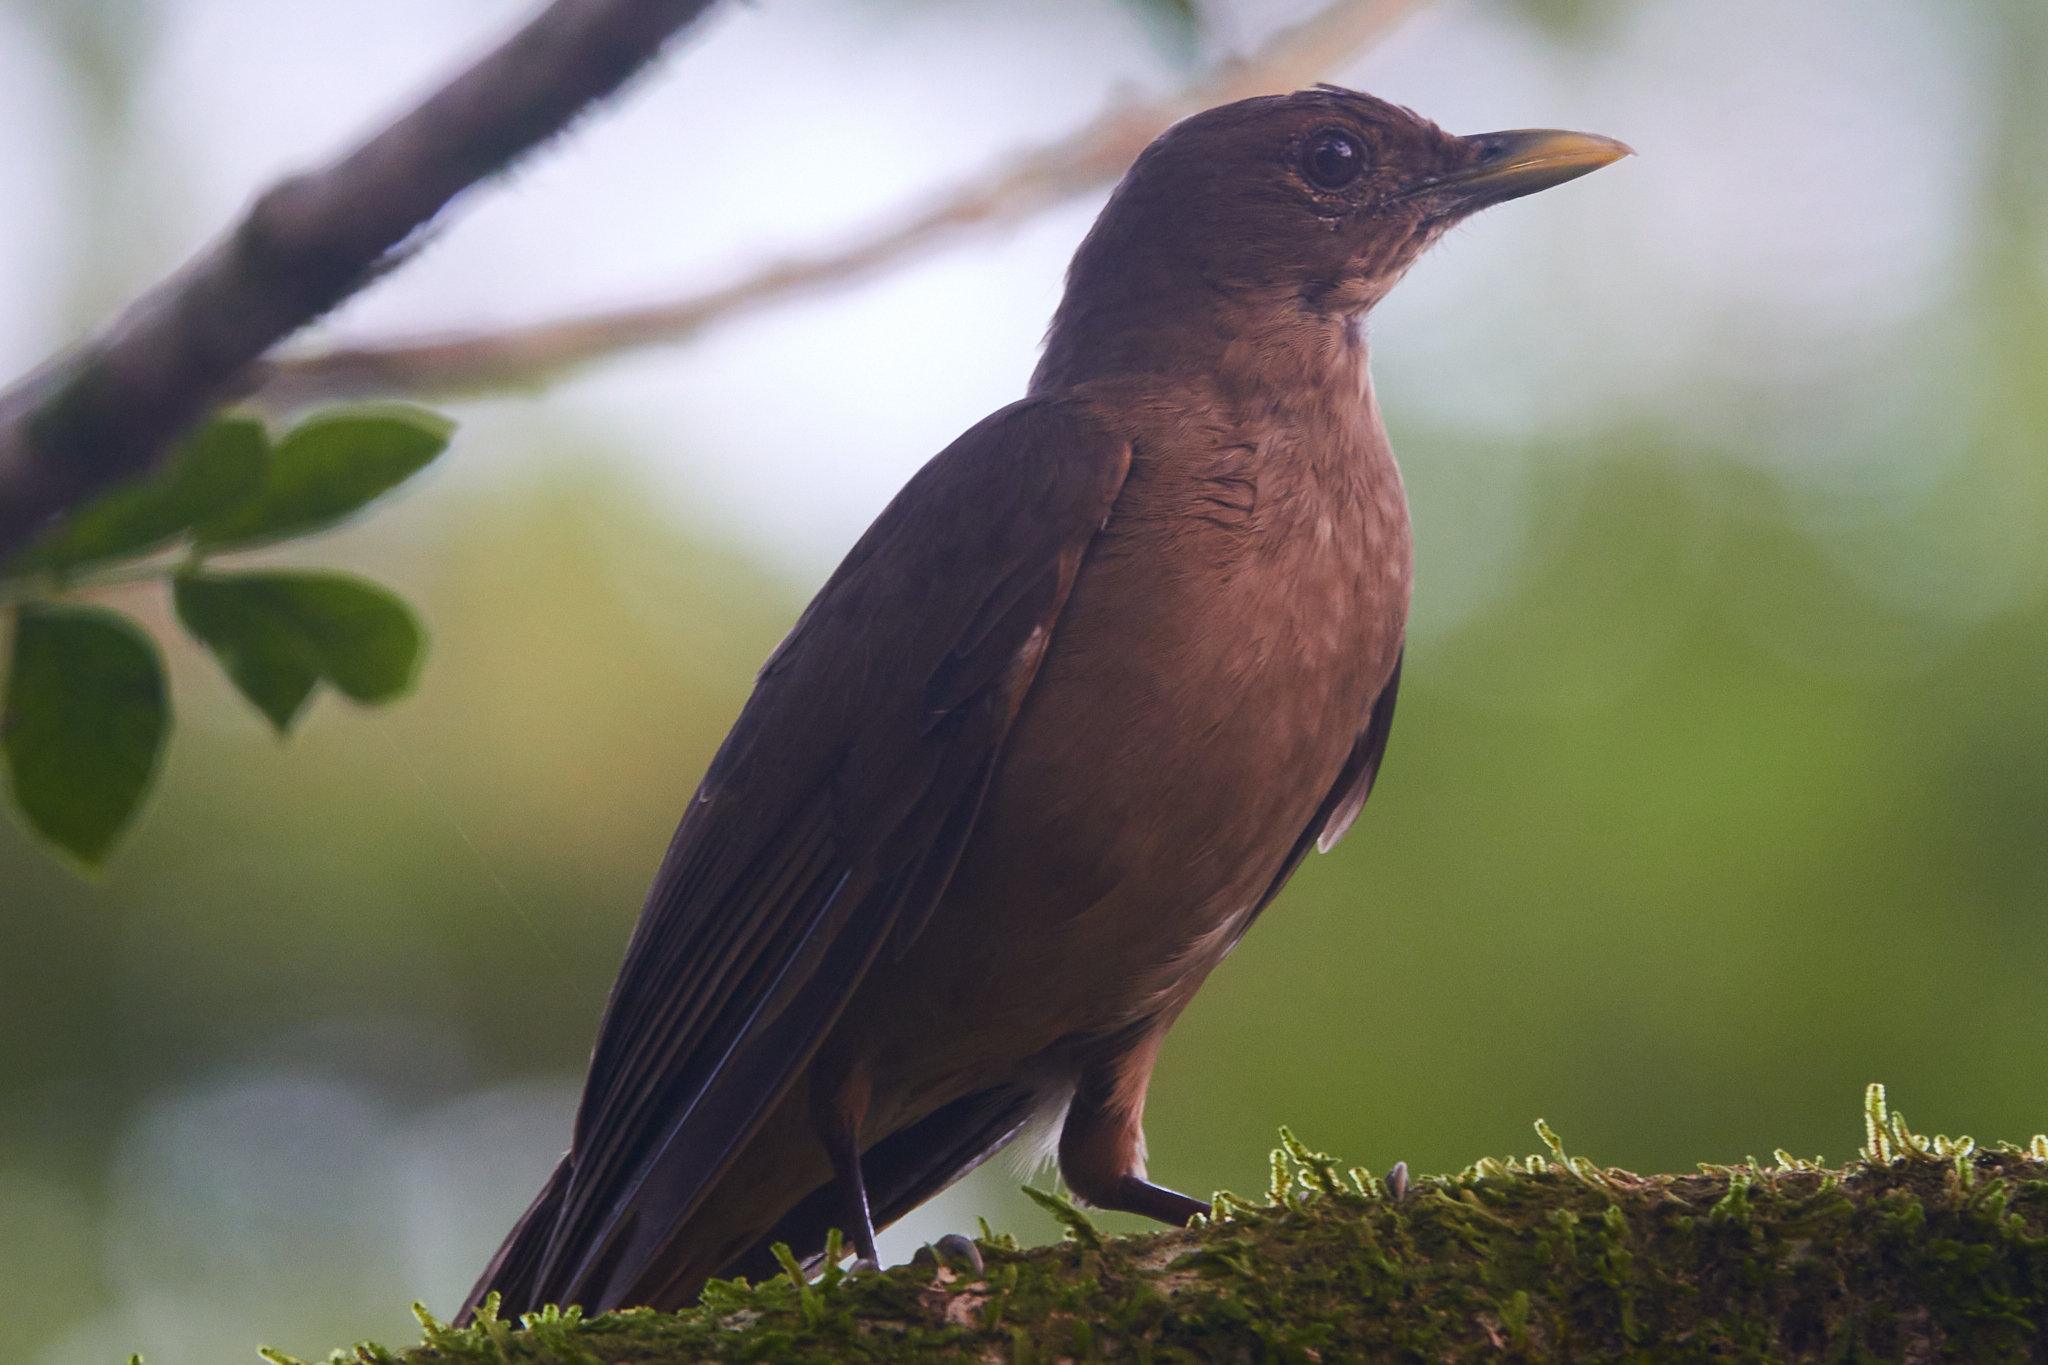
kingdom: Animalia
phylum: Chordata
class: Aves
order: Passeriformes
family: Turdidae
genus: Turdus
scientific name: Turdus grayi
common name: Clay-colored thrush
